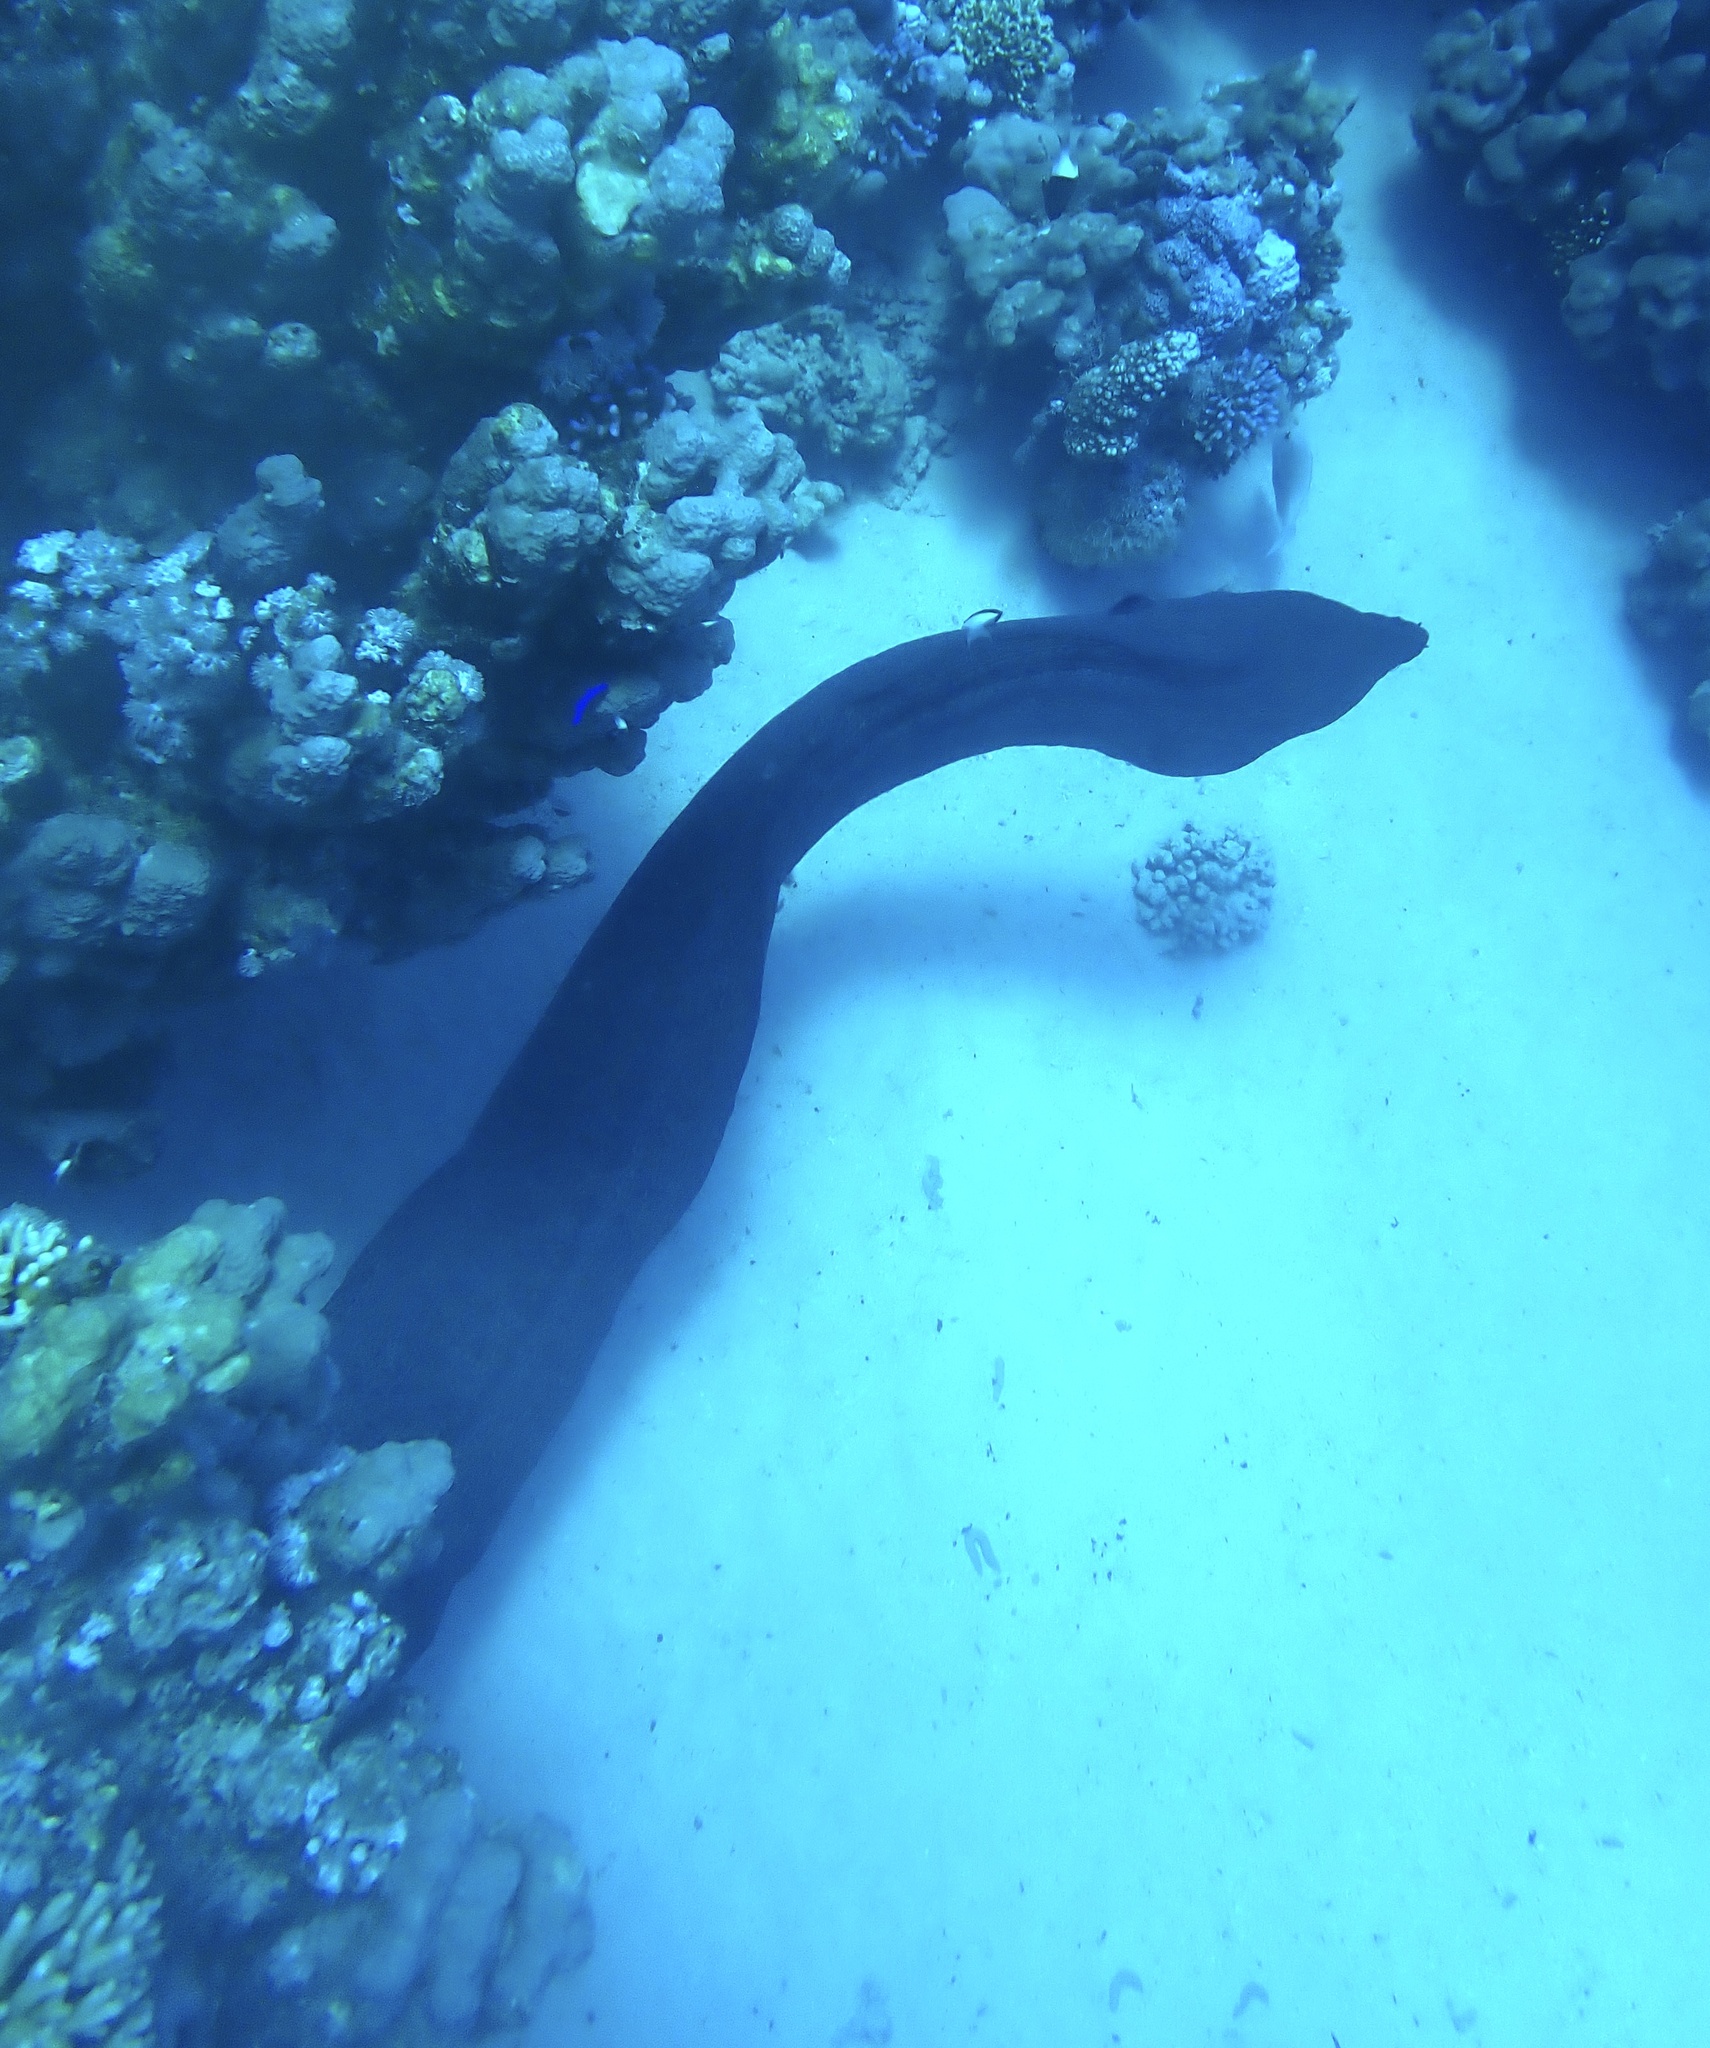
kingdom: Animalia
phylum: Chordata
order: Anguilliformes
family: Muraenidae
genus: Gymnothorax
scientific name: Gymnothorax javanicus
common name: Giant moray
